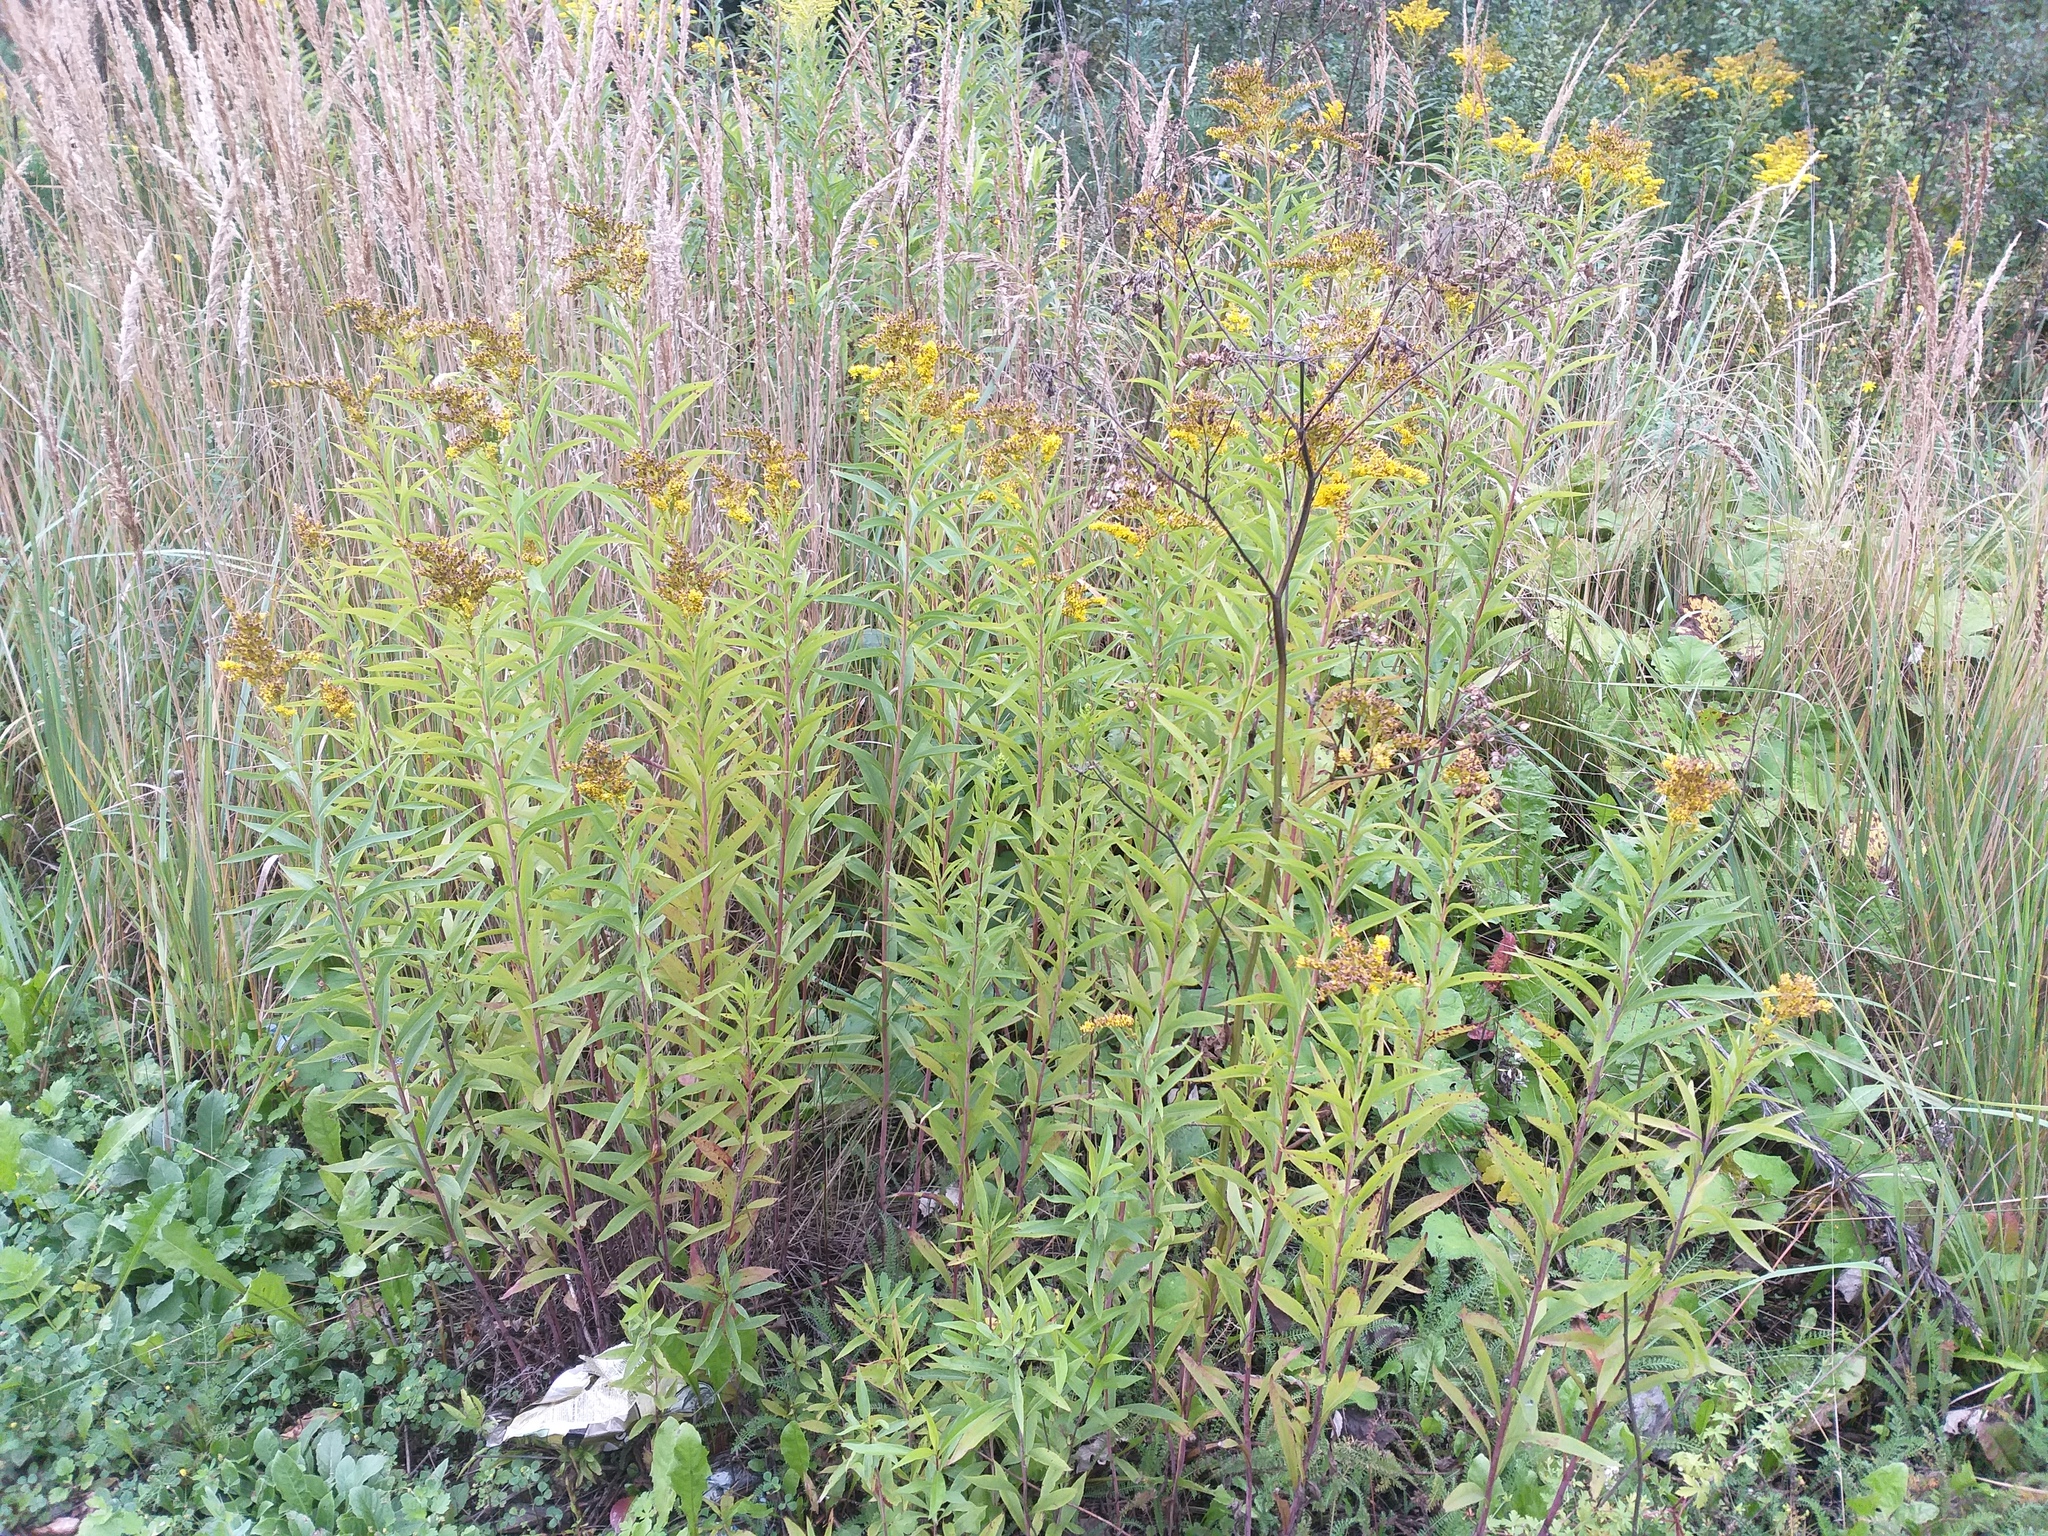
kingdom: Plantae
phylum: Tracheophyta
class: Magnoliopsida
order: Asterales
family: Asteraceae
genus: Solidago
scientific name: Solidago gigantea
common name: Giant goldenrod
